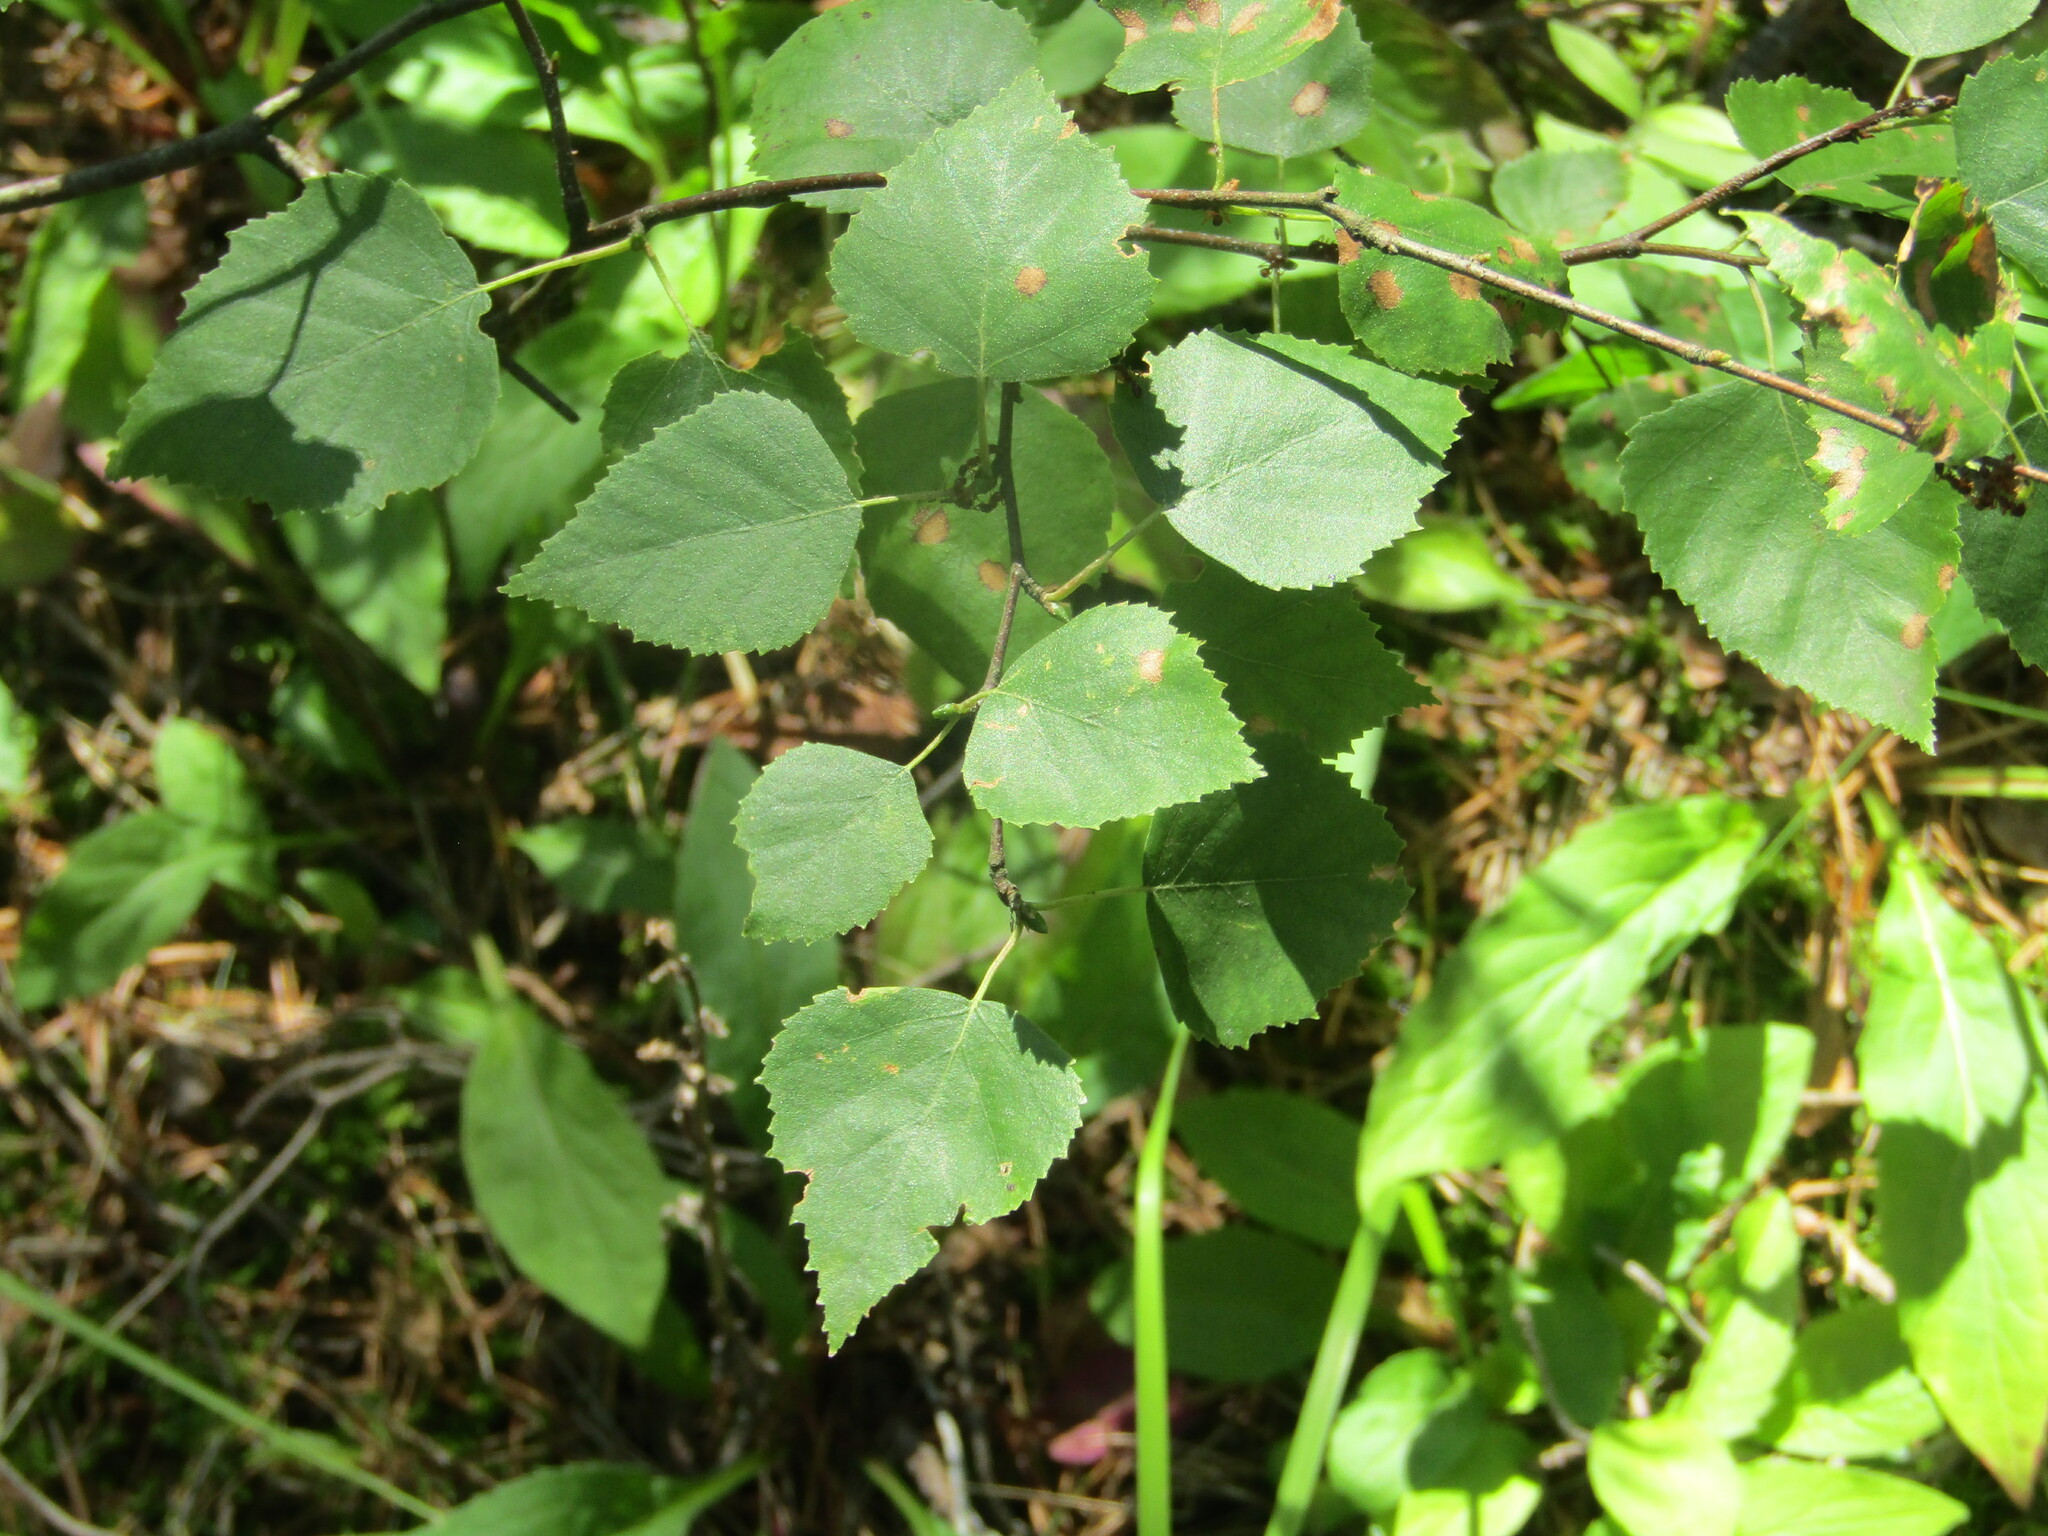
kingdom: Plantae
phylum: Tracheophyta
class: Magnoliopsida
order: Fagales
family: Betulaceae
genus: Betula
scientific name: Betula pendula
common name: Silver birch
